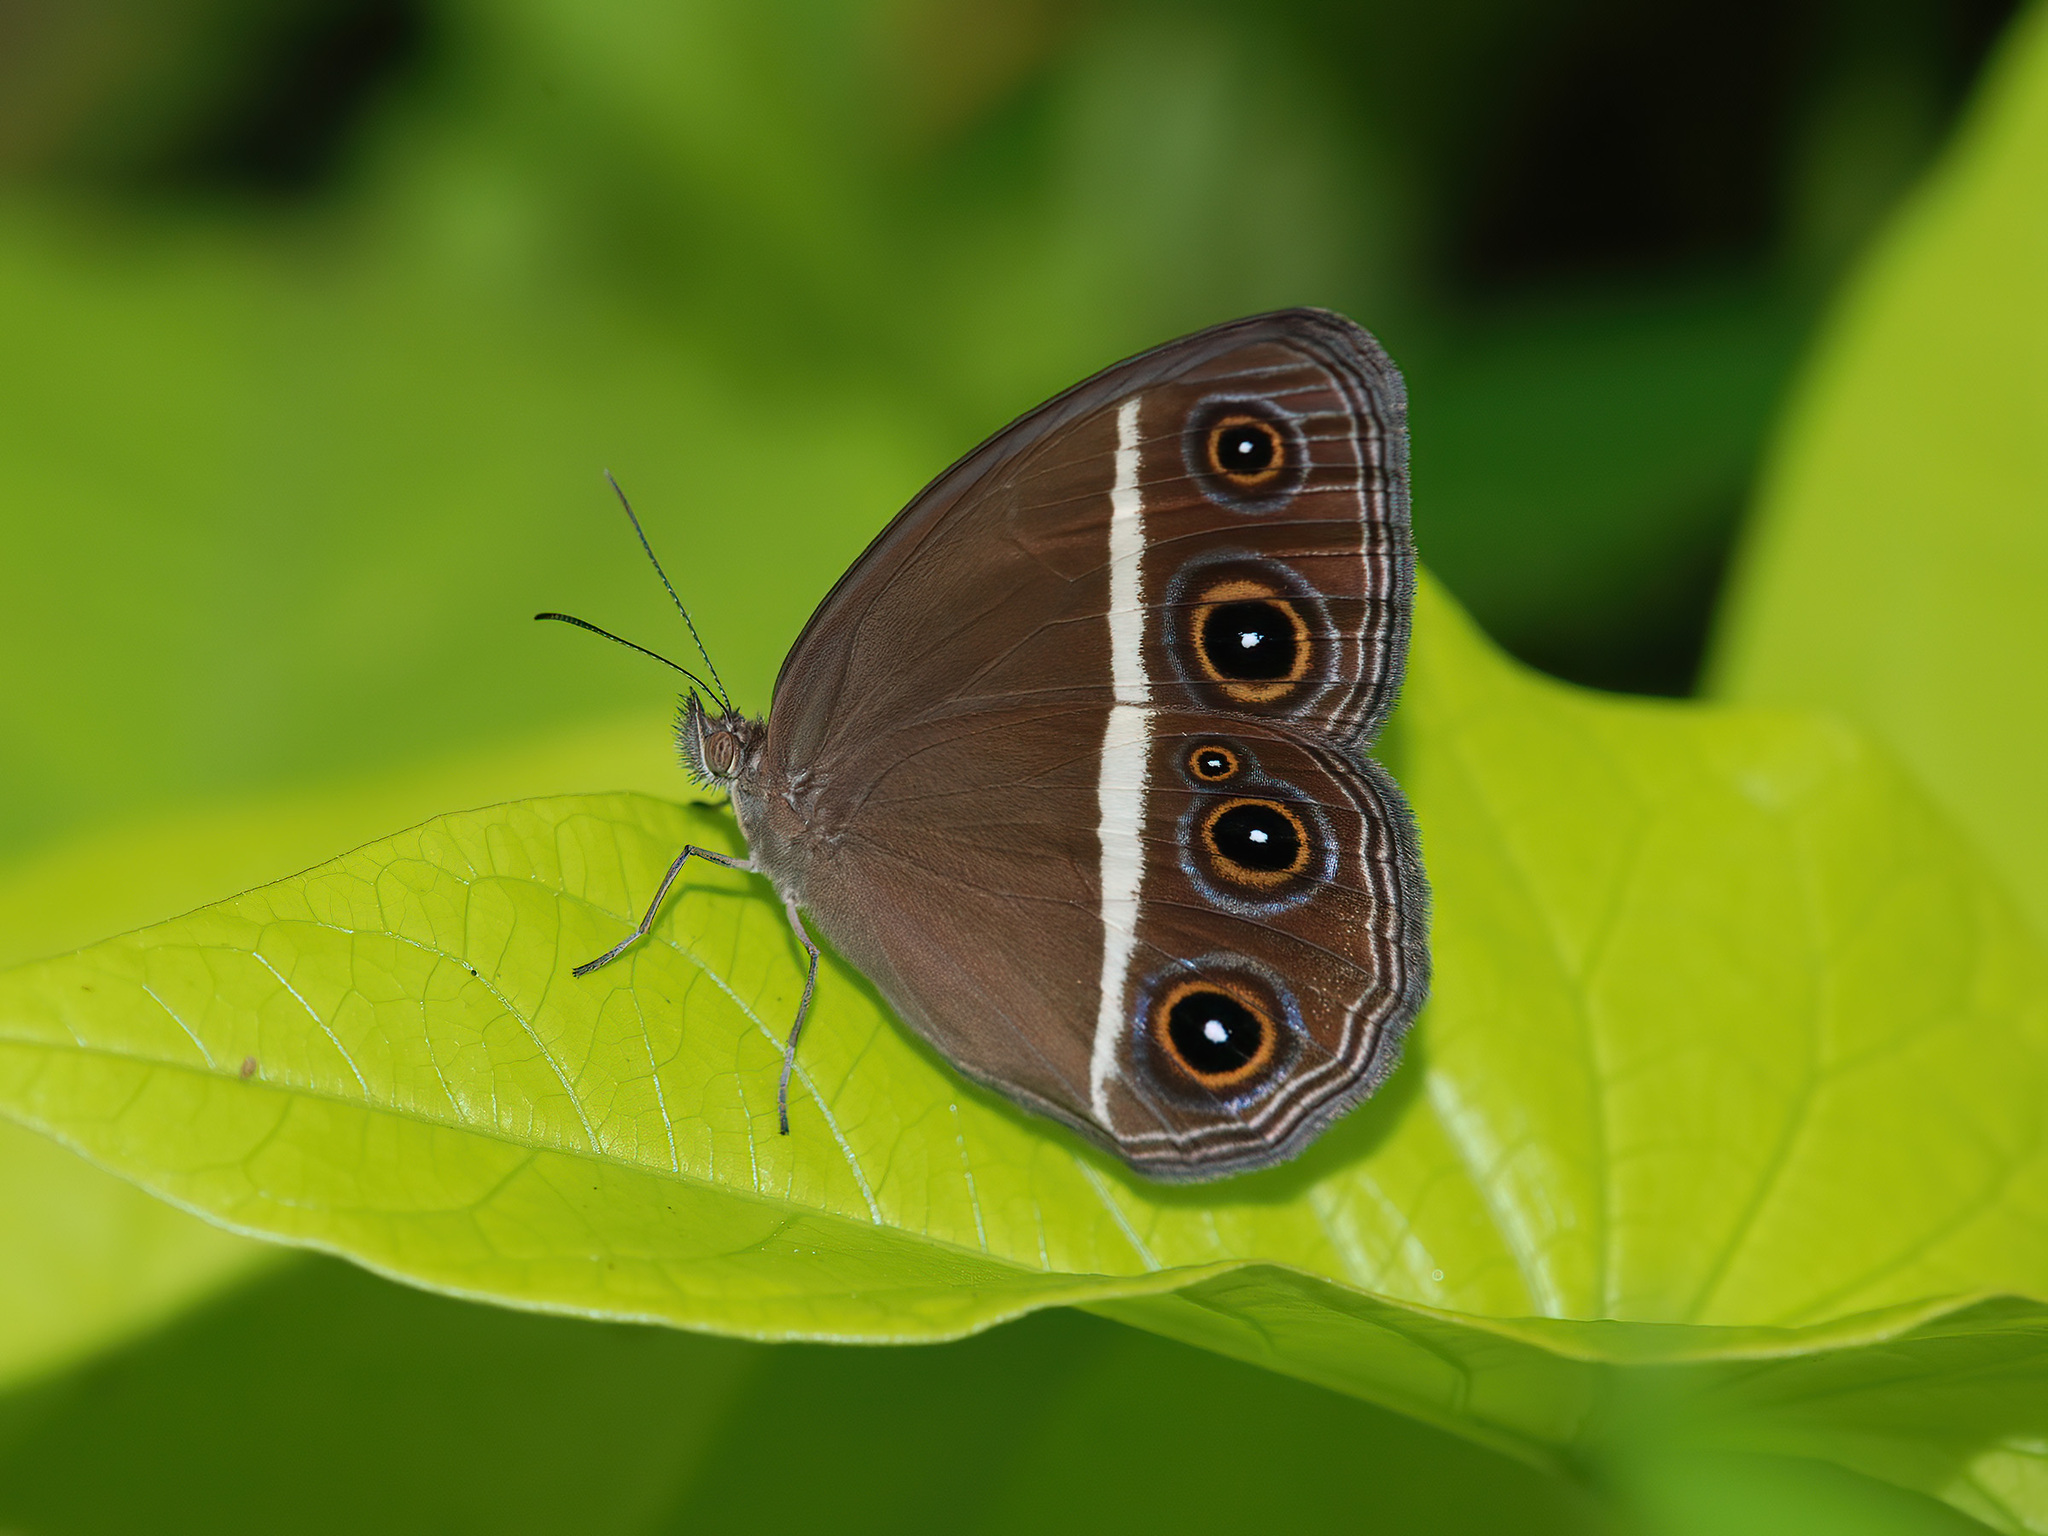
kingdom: Animalia
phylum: Arthropoda
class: Insecta
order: Lepidoptera
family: Nymphalidae
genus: Orsotriaena
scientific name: Orsotriaena medus
